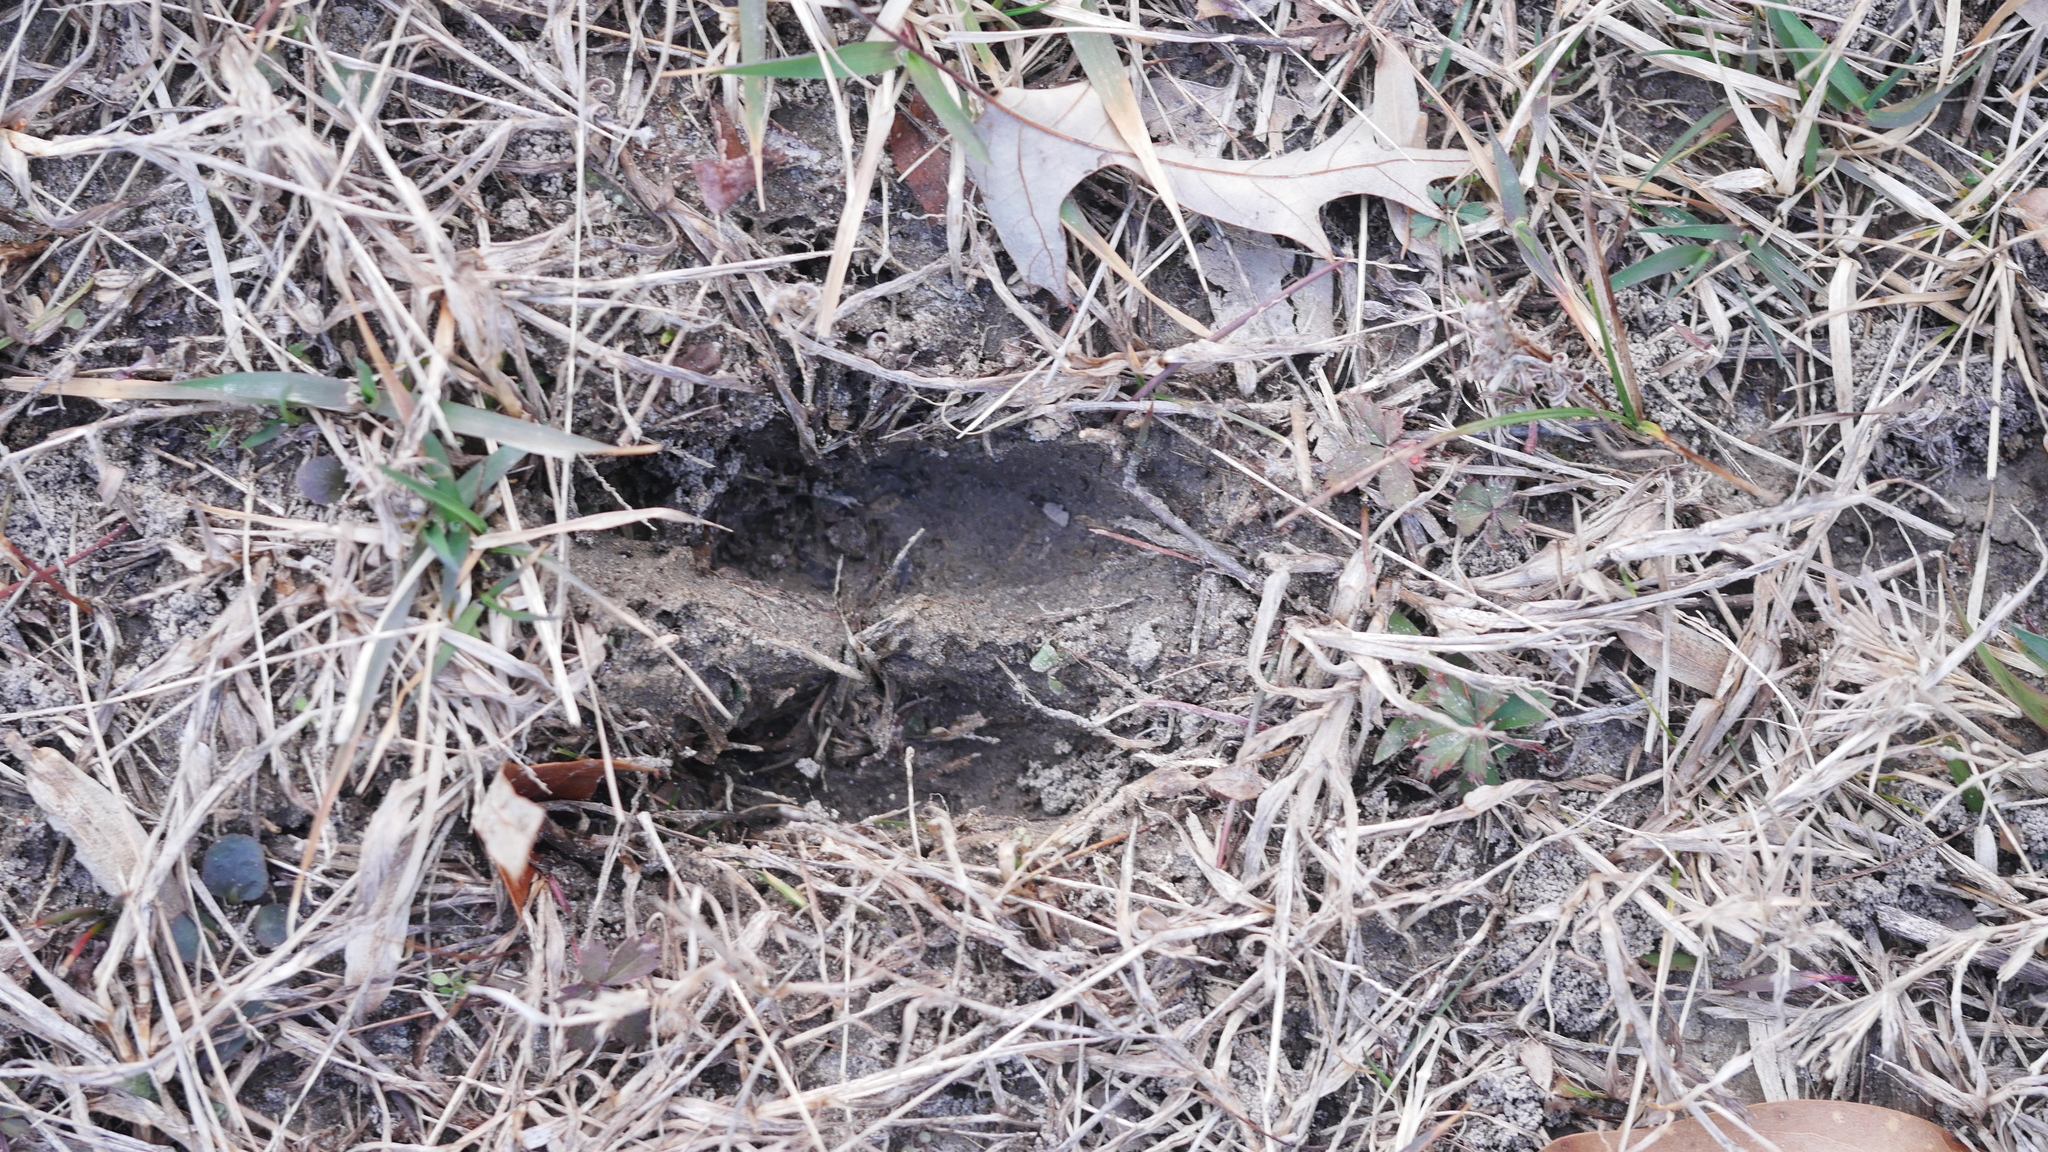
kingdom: Animalia
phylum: Chordata
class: Mammalia
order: Artiodactyla
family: Cervidae
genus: Odocoileus
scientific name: Odocoileus virginianus
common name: White-tailed deer
